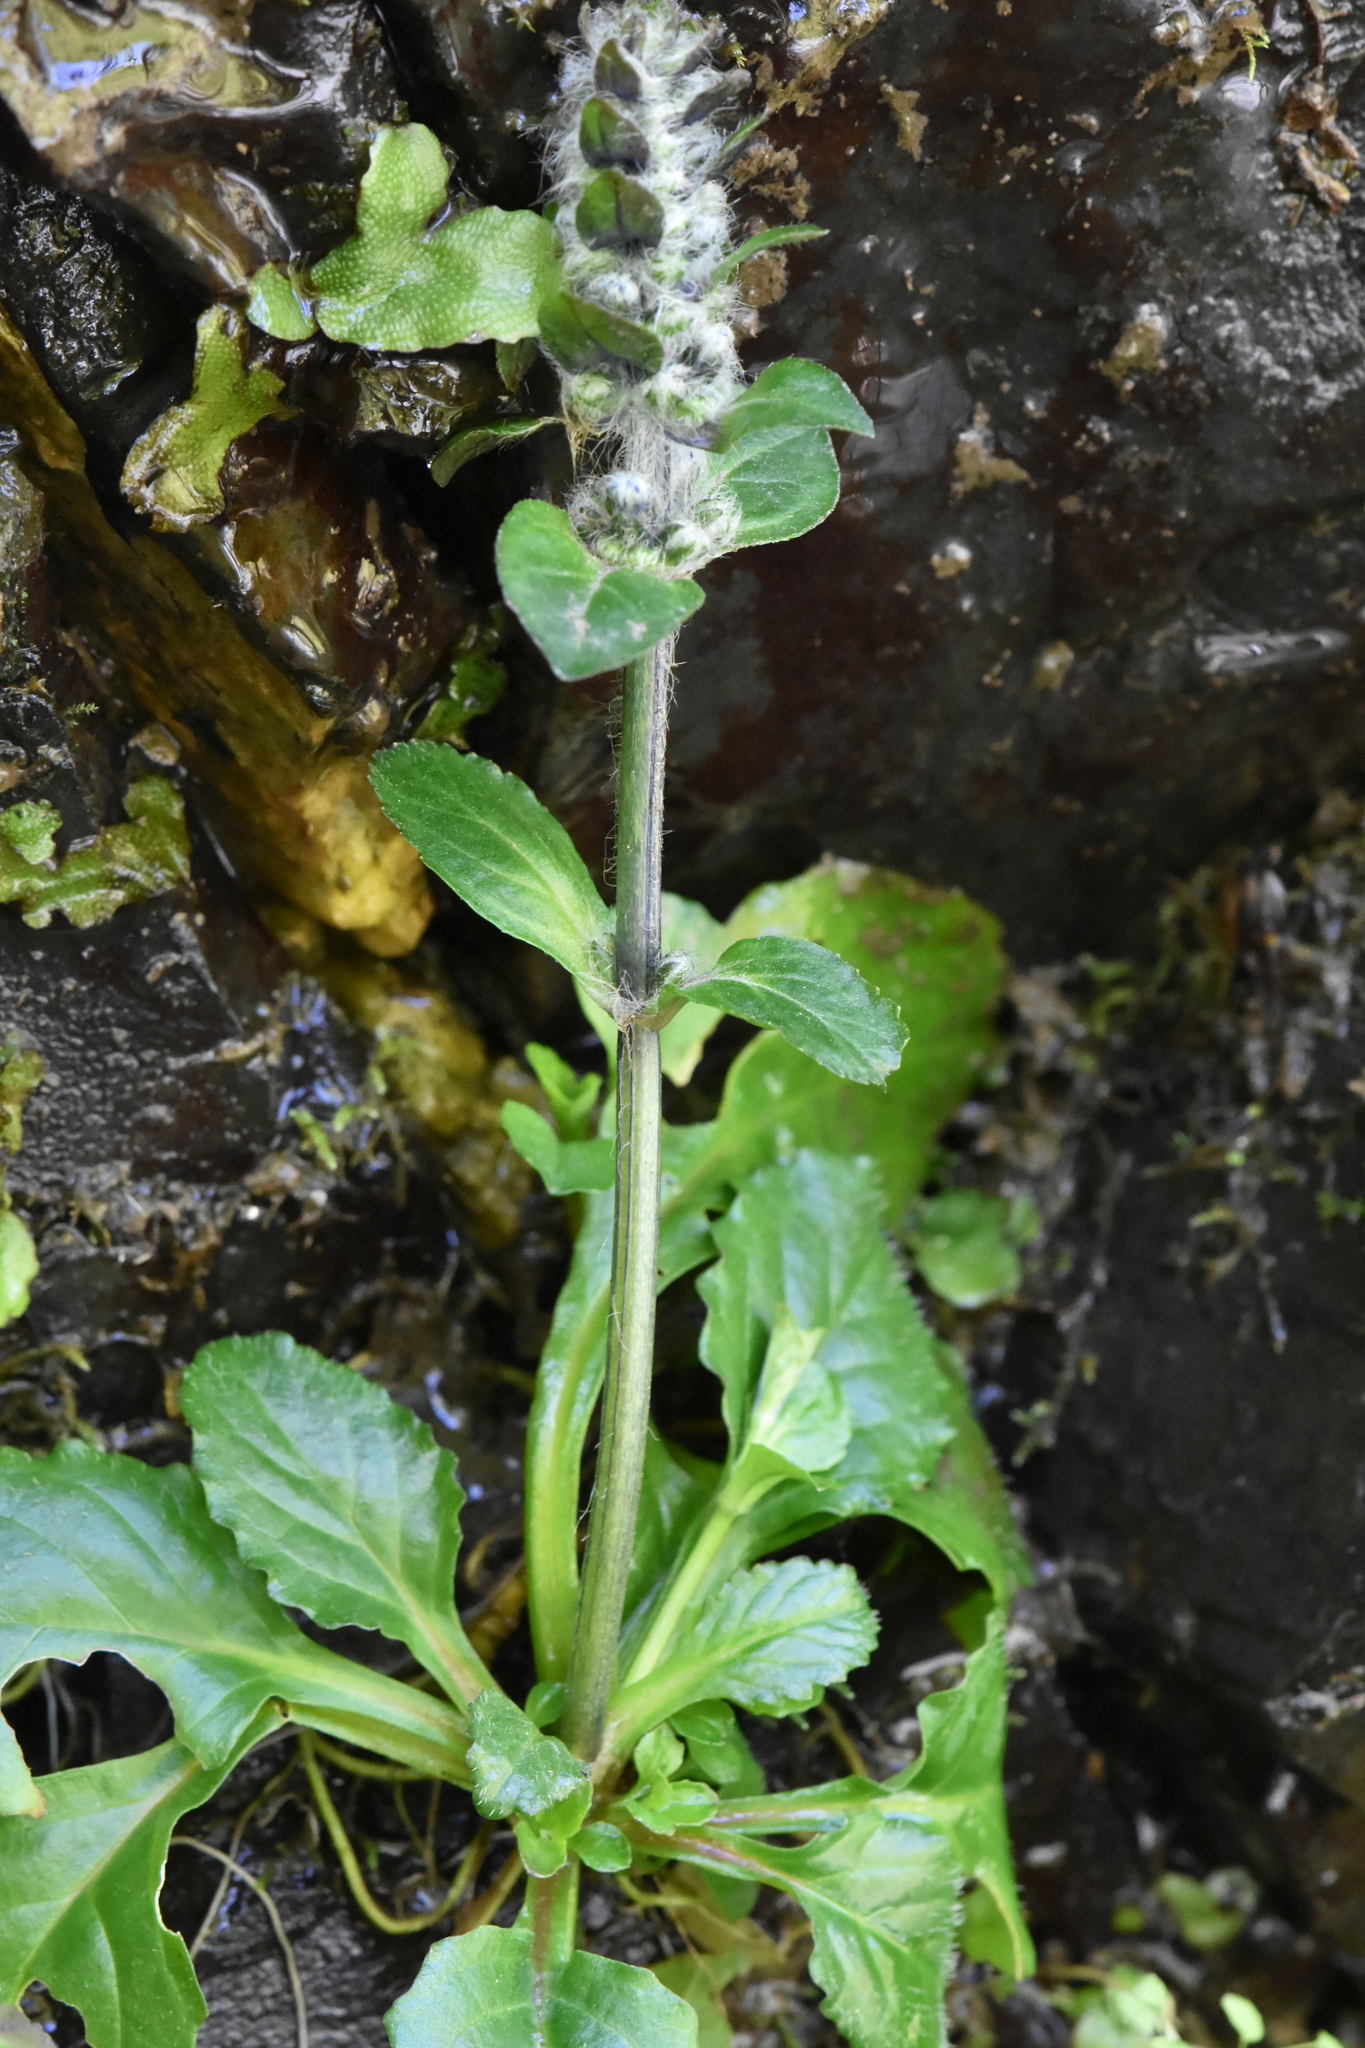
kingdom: Plantae
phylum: Tracheophyta
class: Magnoliopsida
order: Lamiales
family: Lamiaceae
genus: Ajuga
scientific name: Ajuga reptans
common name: Bugle
